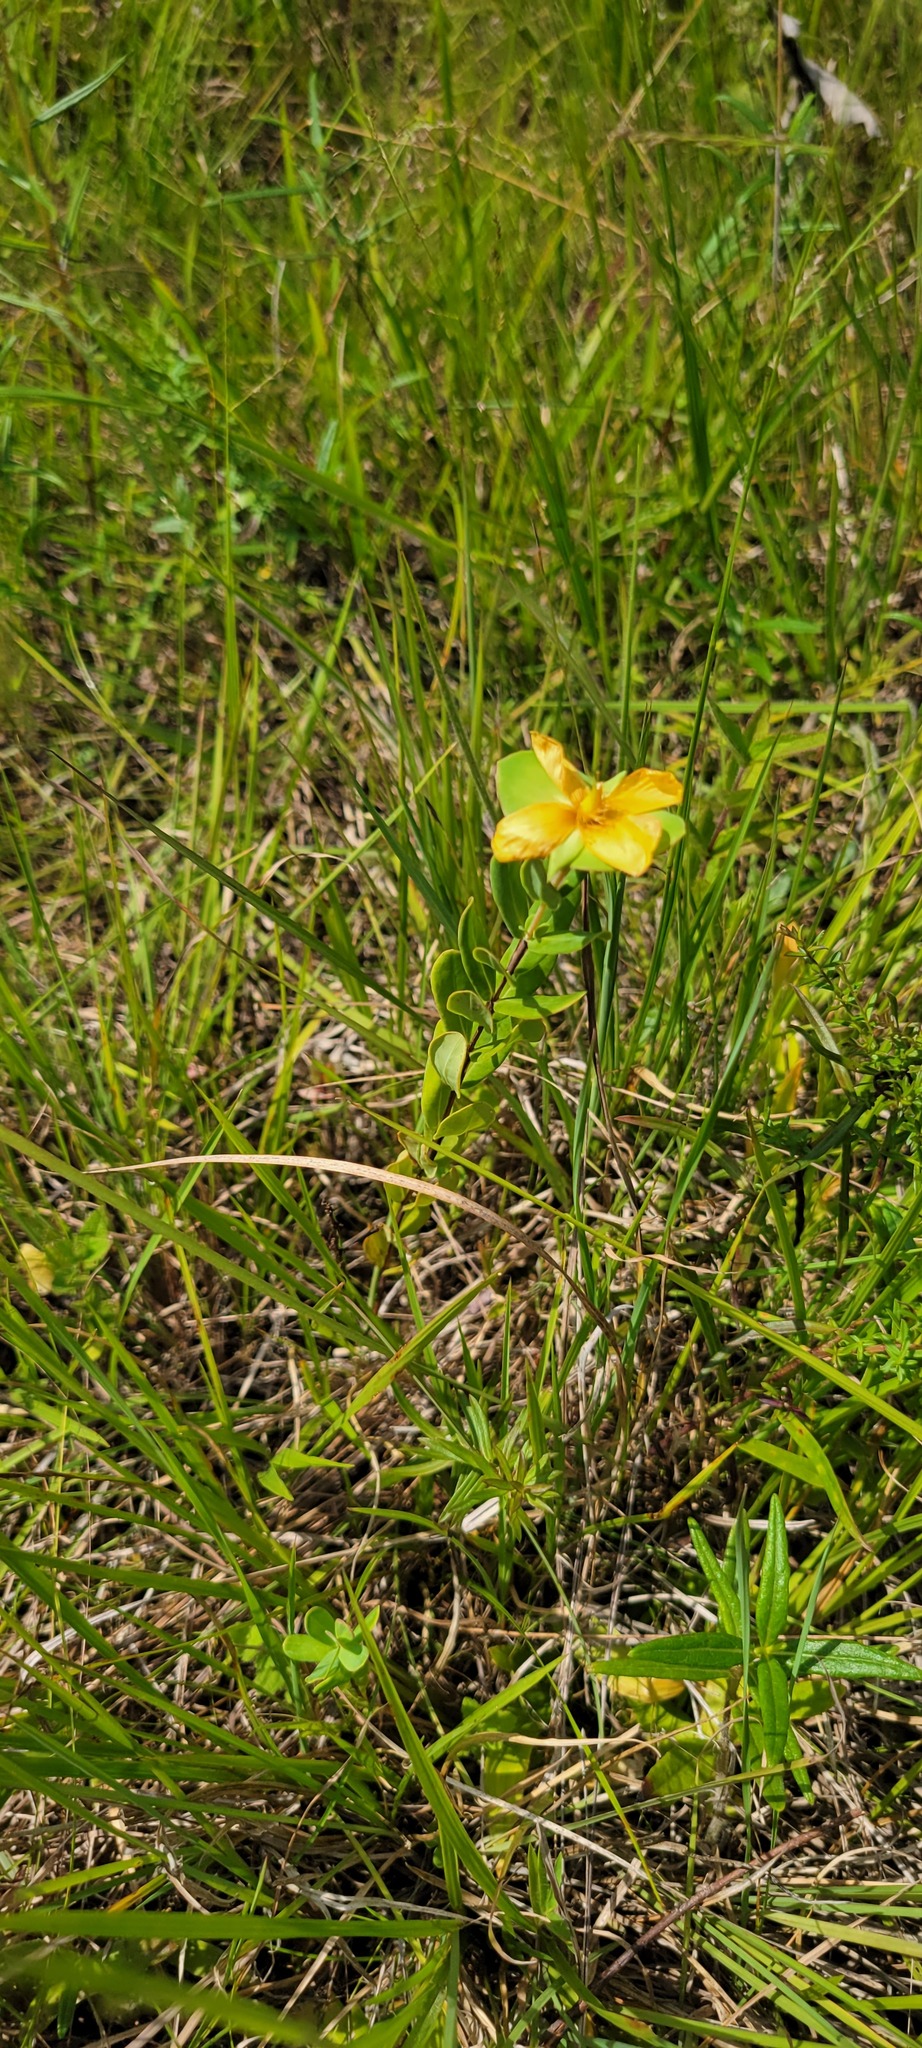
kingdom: Plantae
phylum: Tracheophyta
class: Magnoliopsida
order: Malpighiales
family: Hypericaceae
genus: Hypericum
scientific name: Hypericum crux-andreae
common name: St.-peter's-wort
